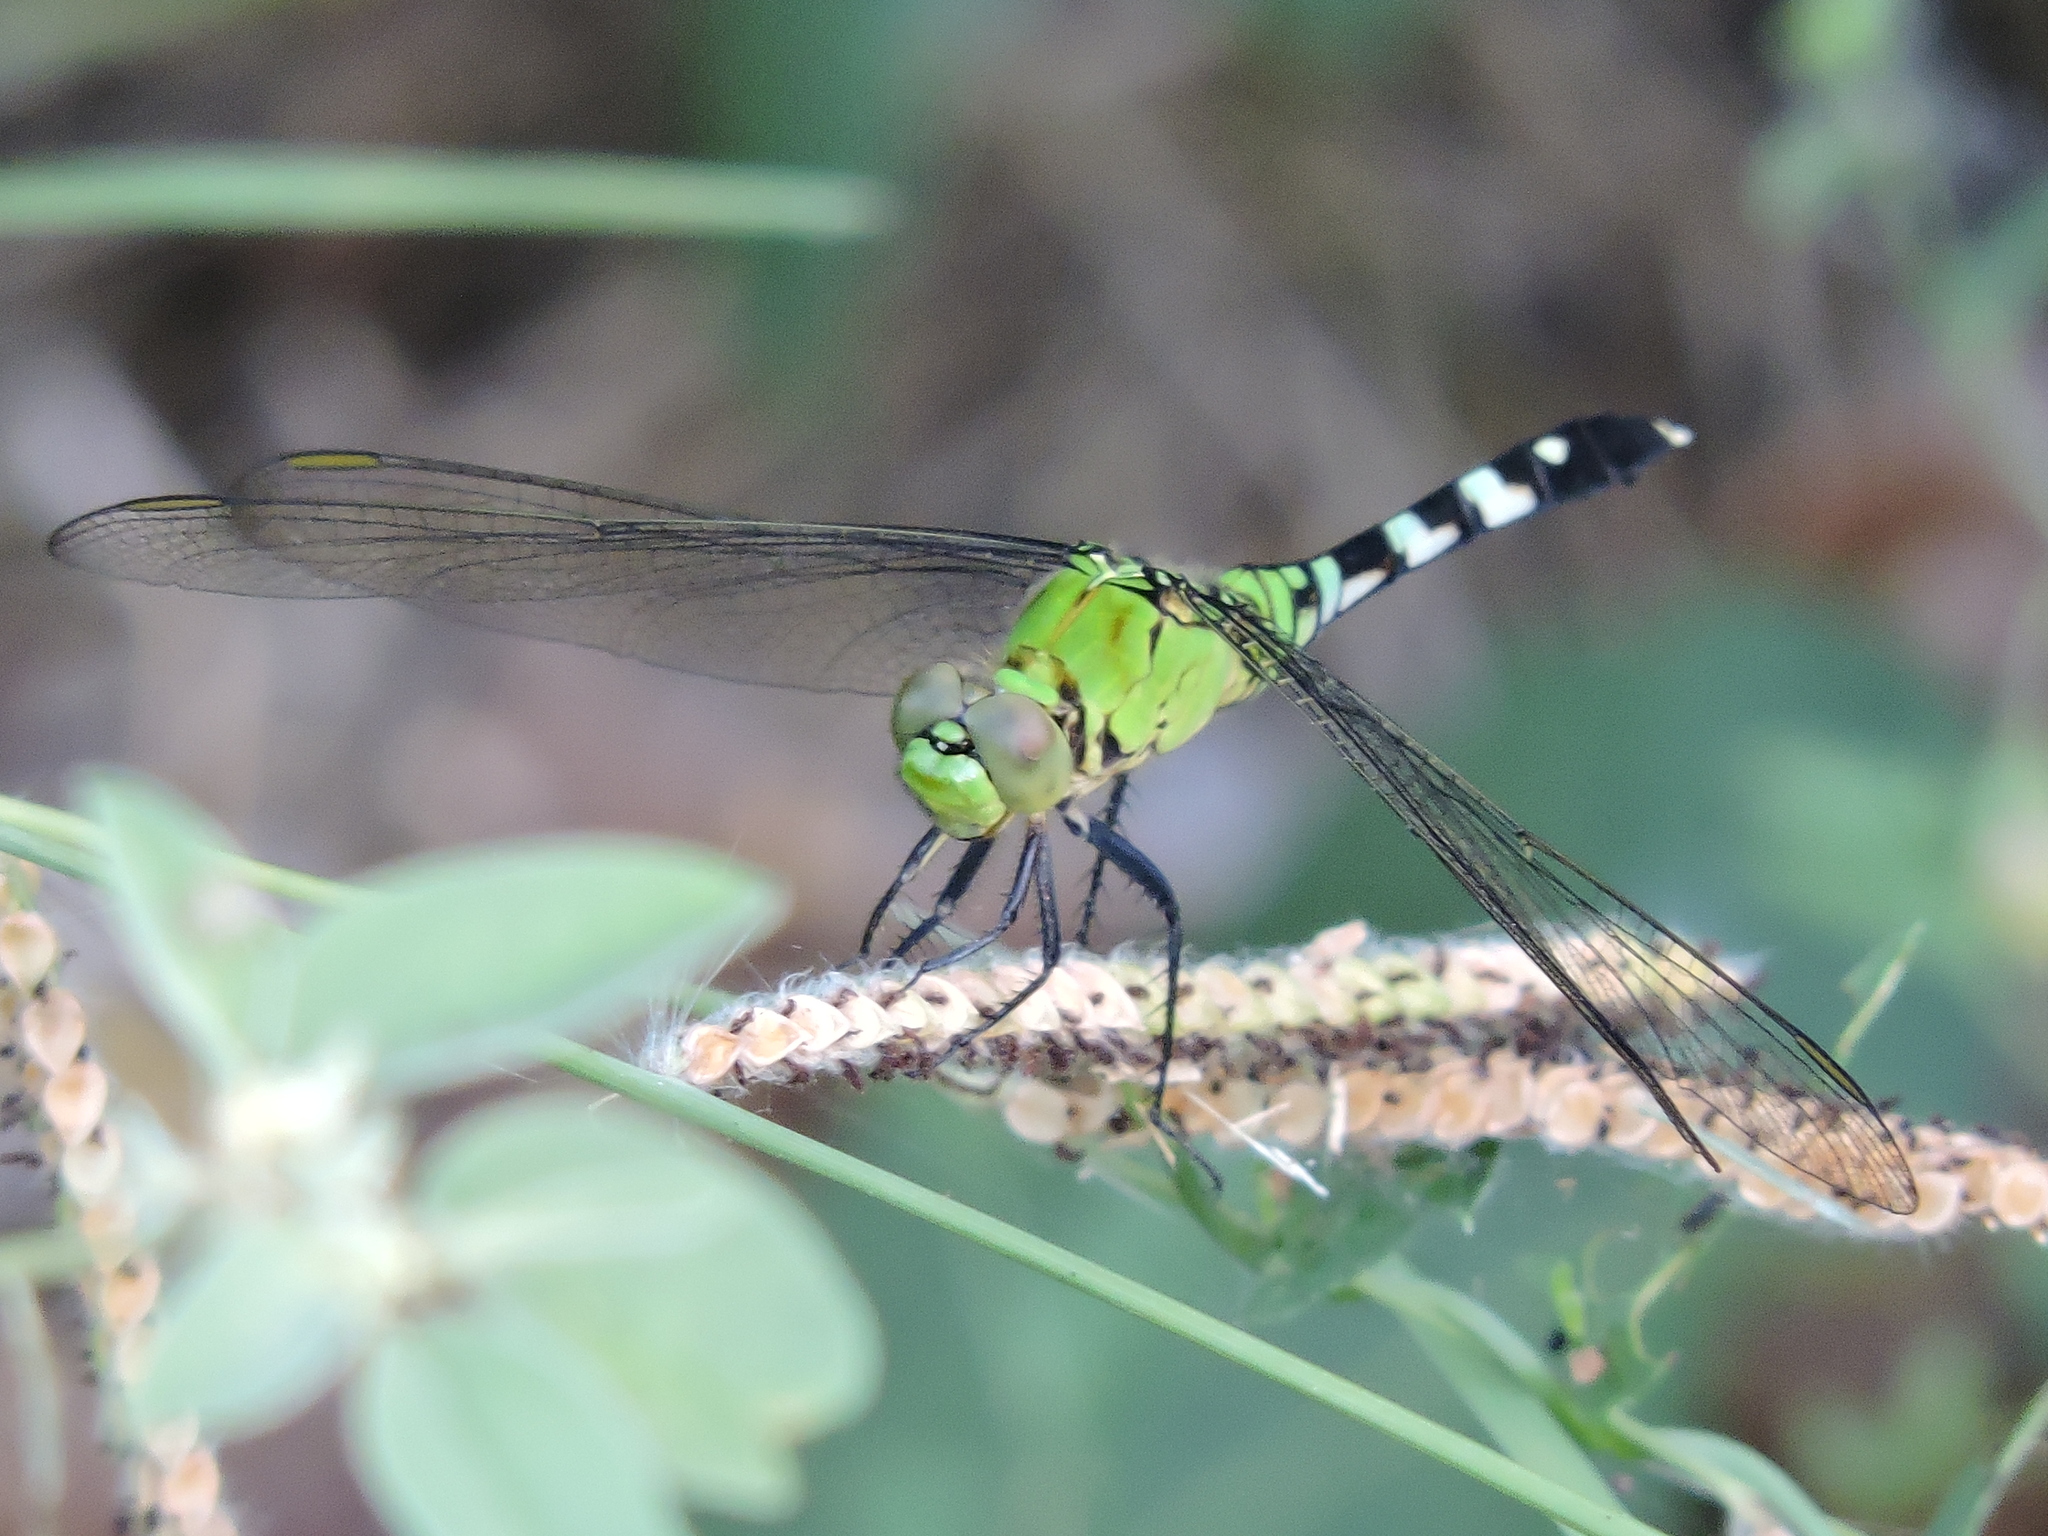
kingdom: Animalia
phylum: Arthropoda
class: Insecta
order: Odonata
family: Libellulidae
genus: Erythemis
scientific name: Erythemis simplicicollis
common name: Eastern pondhawk
